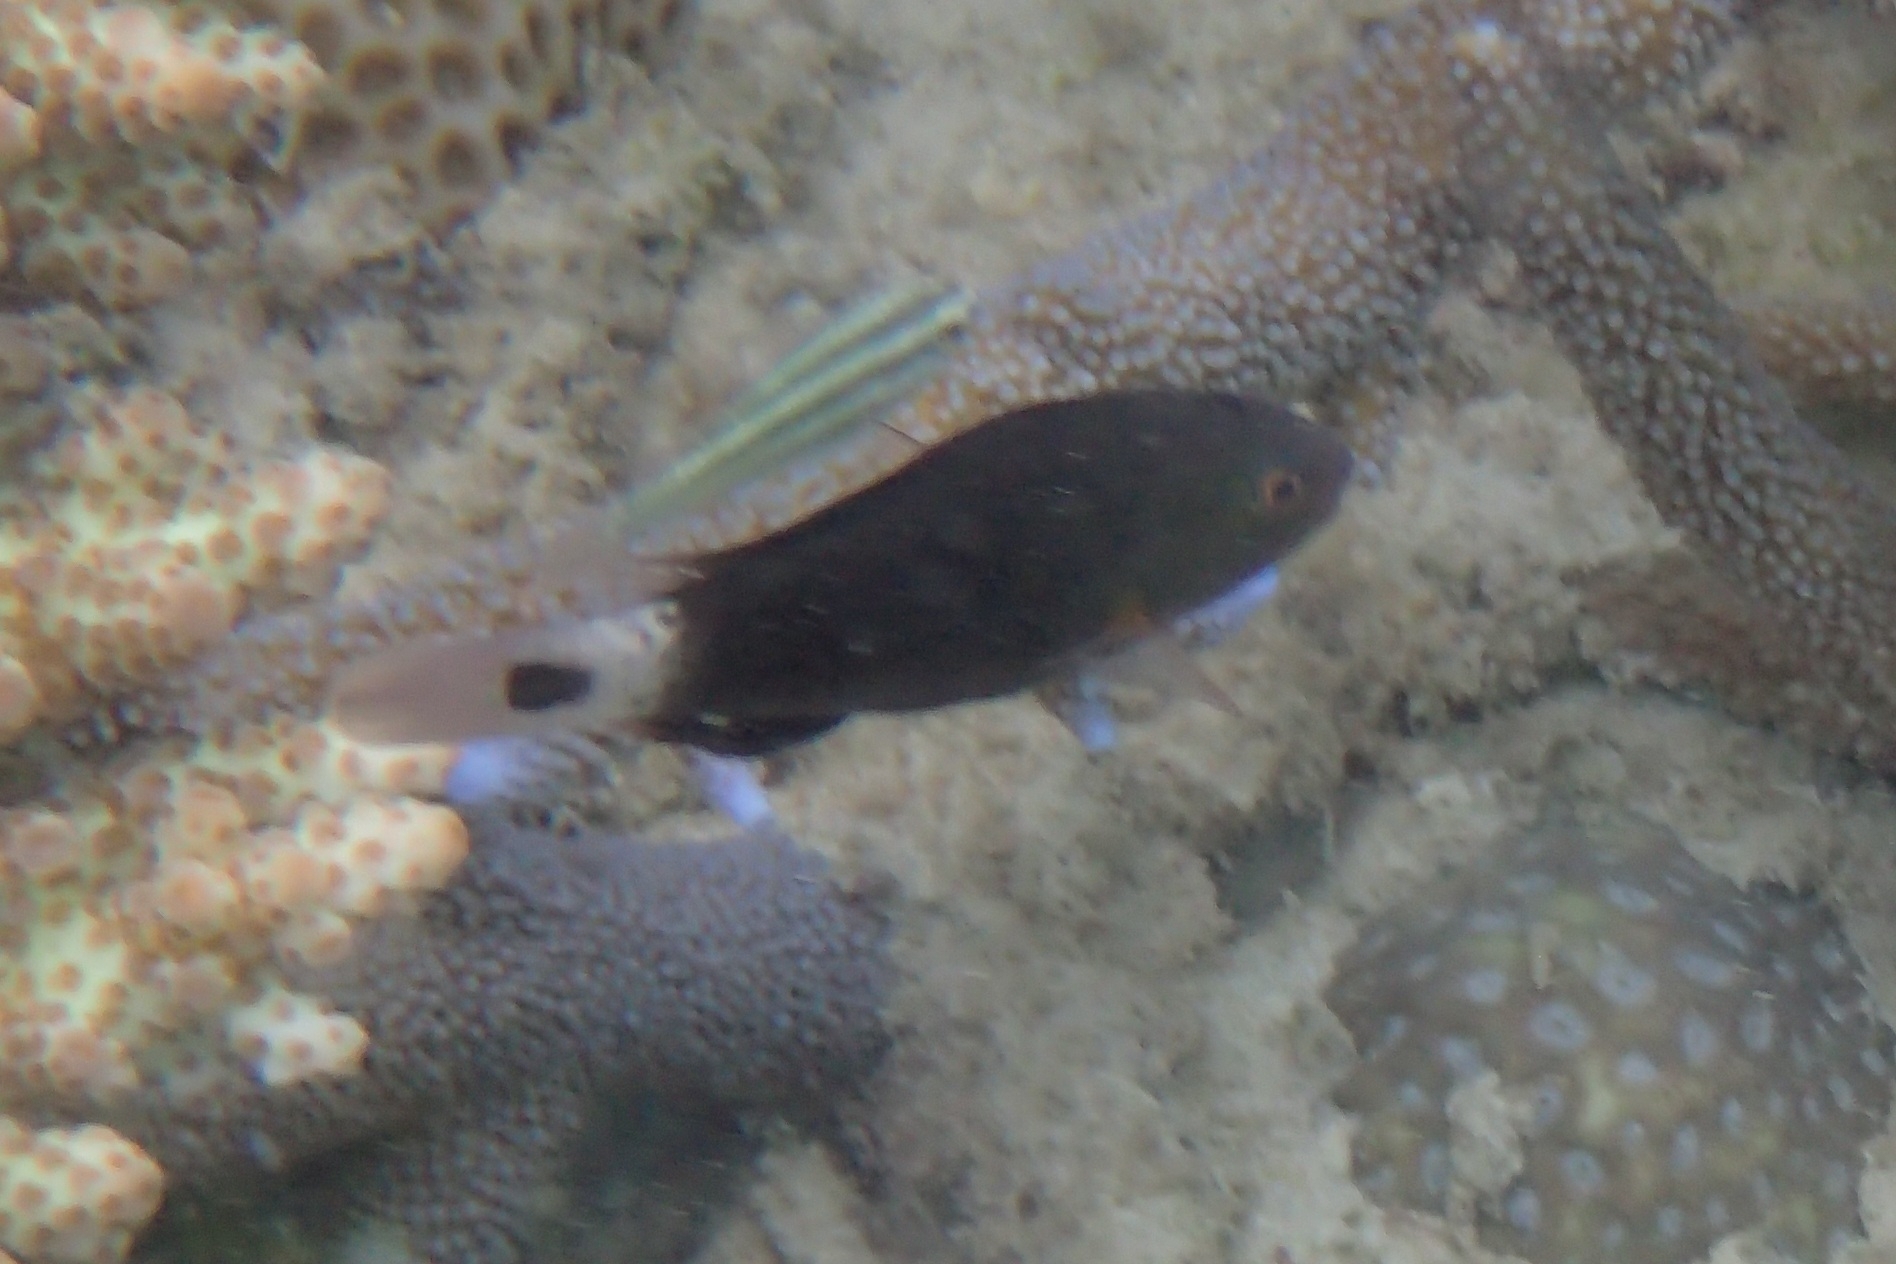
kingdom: Animalia
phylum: Chordata
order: Perciformes
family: Scaridae
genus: Chlorurus
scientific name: Chlorurus spilurus
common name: Bullethead parrotfish
